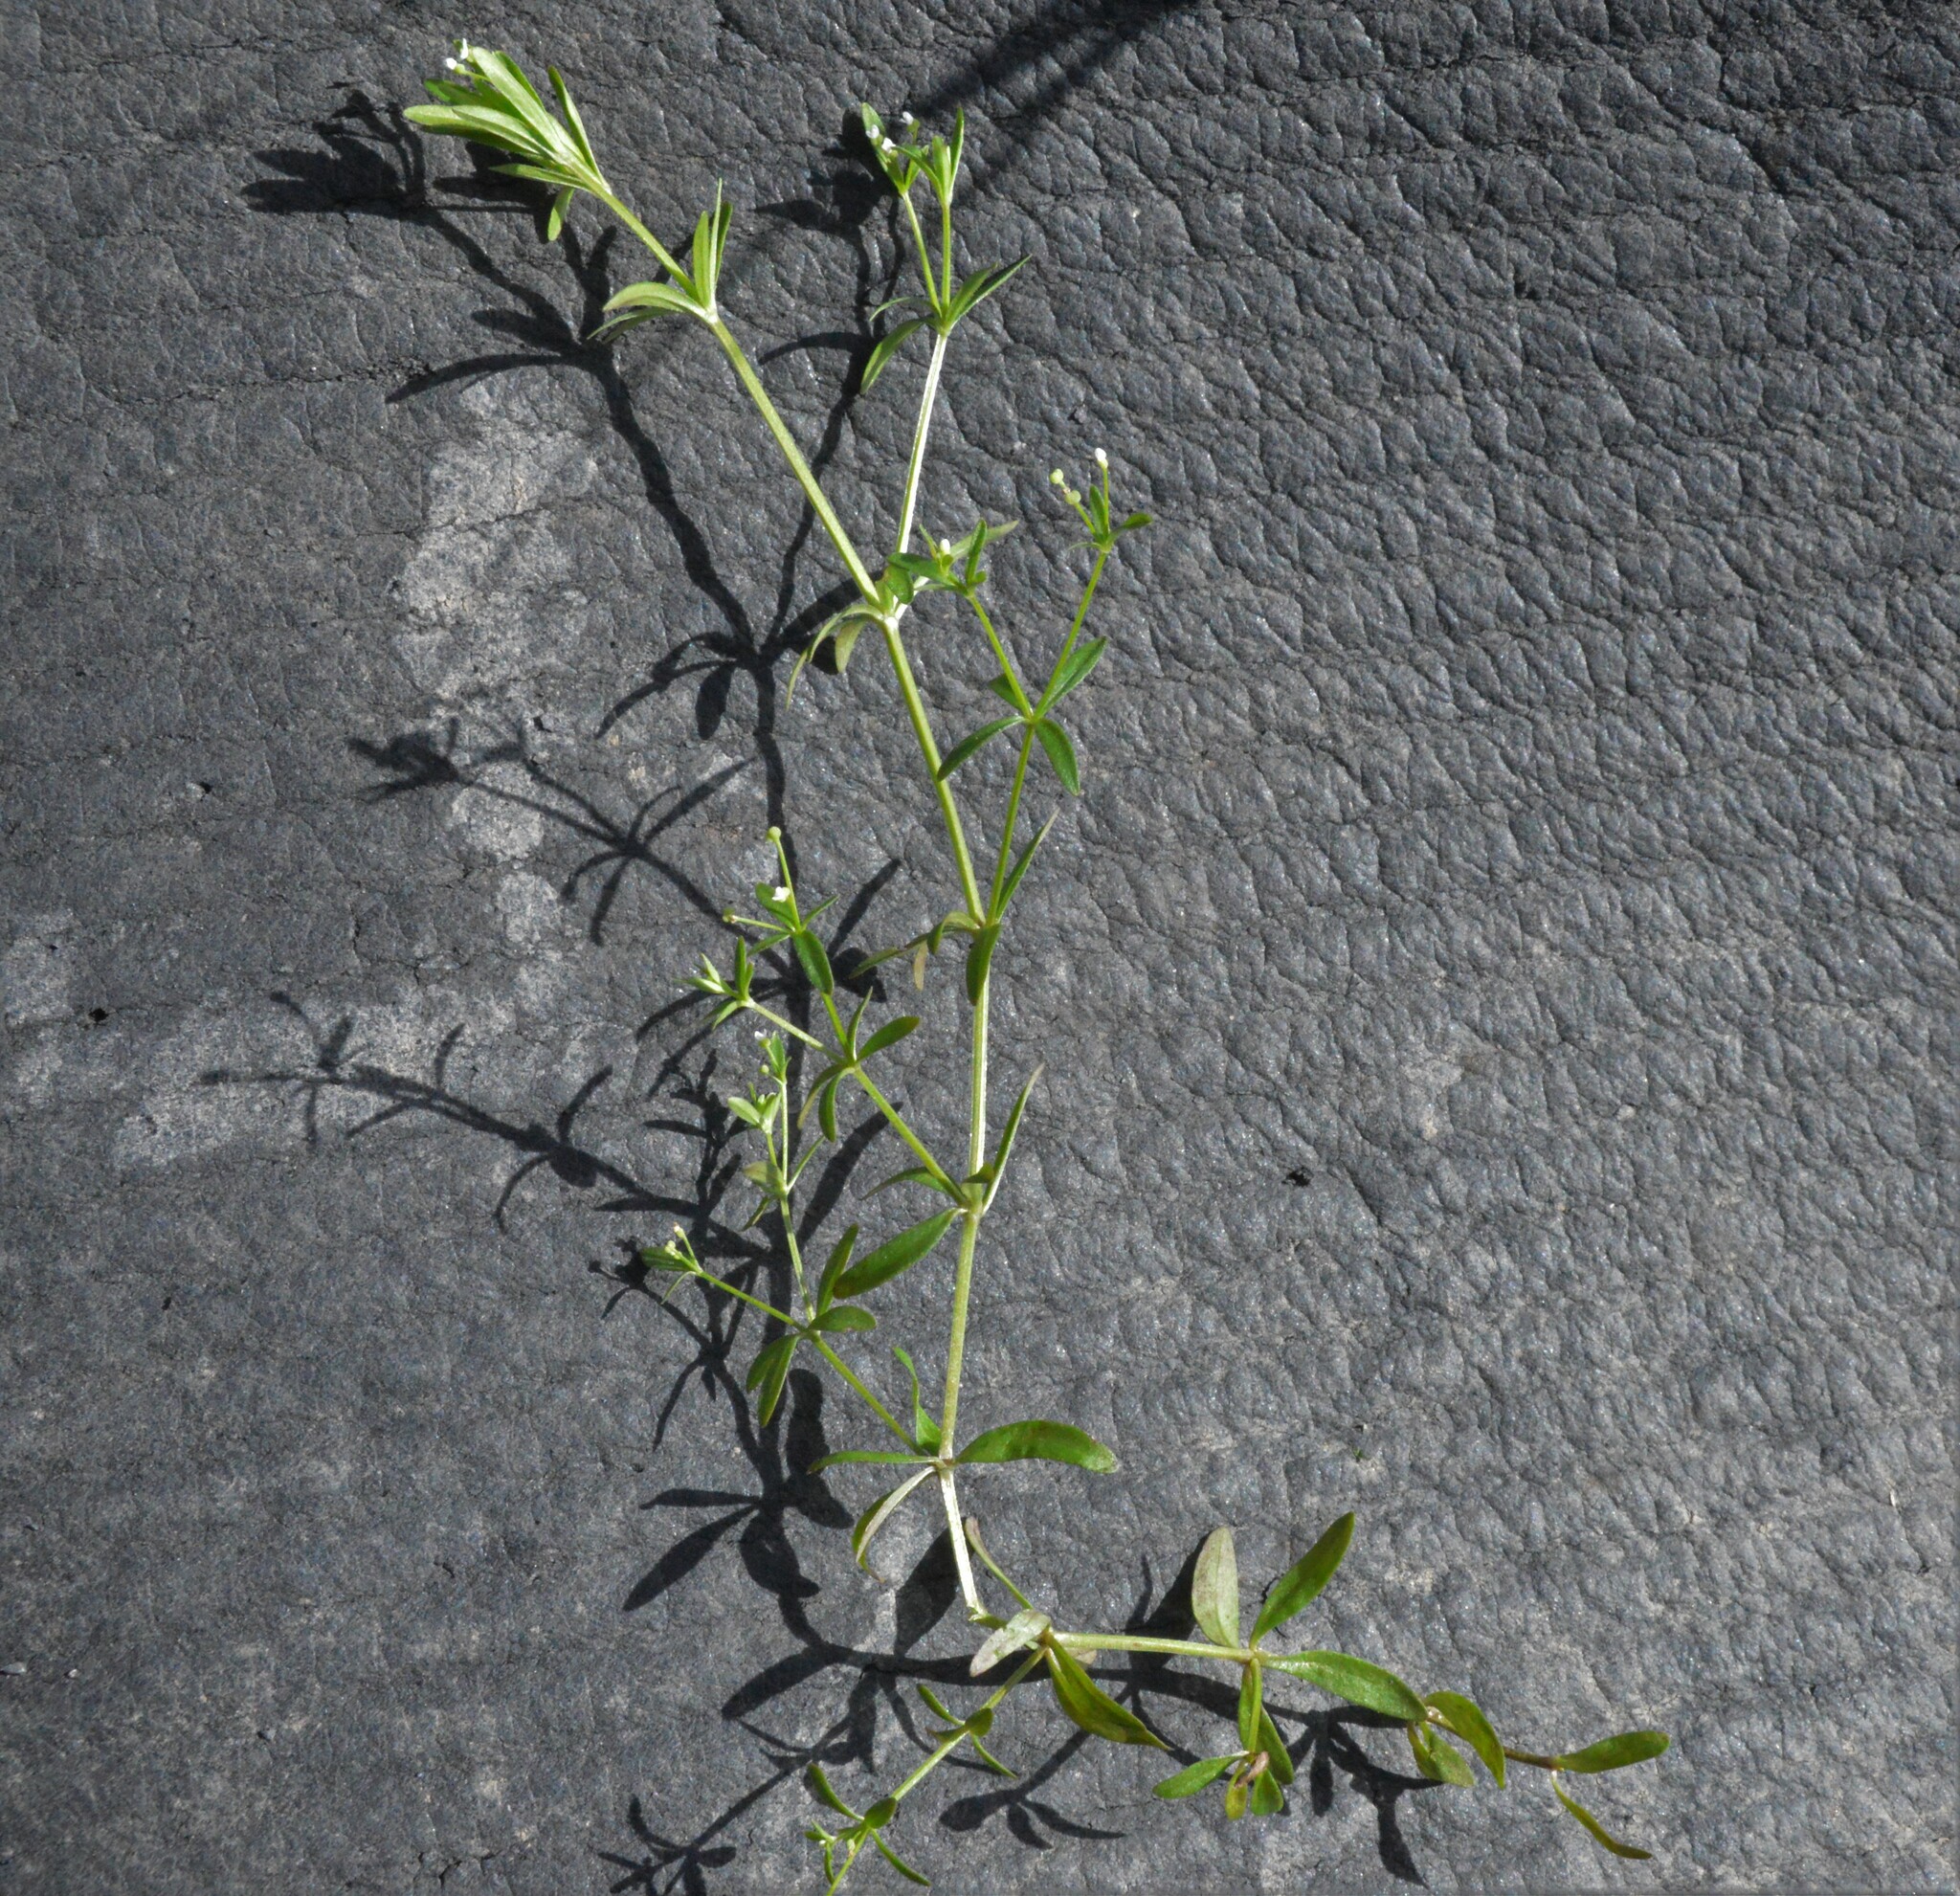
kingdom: Plantae
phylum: Tracheophyta
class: Magnoliopsida
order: Gentianales
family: Rubiaceae
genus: Galium
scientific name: Galium tinctorium
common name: Bedstraw
